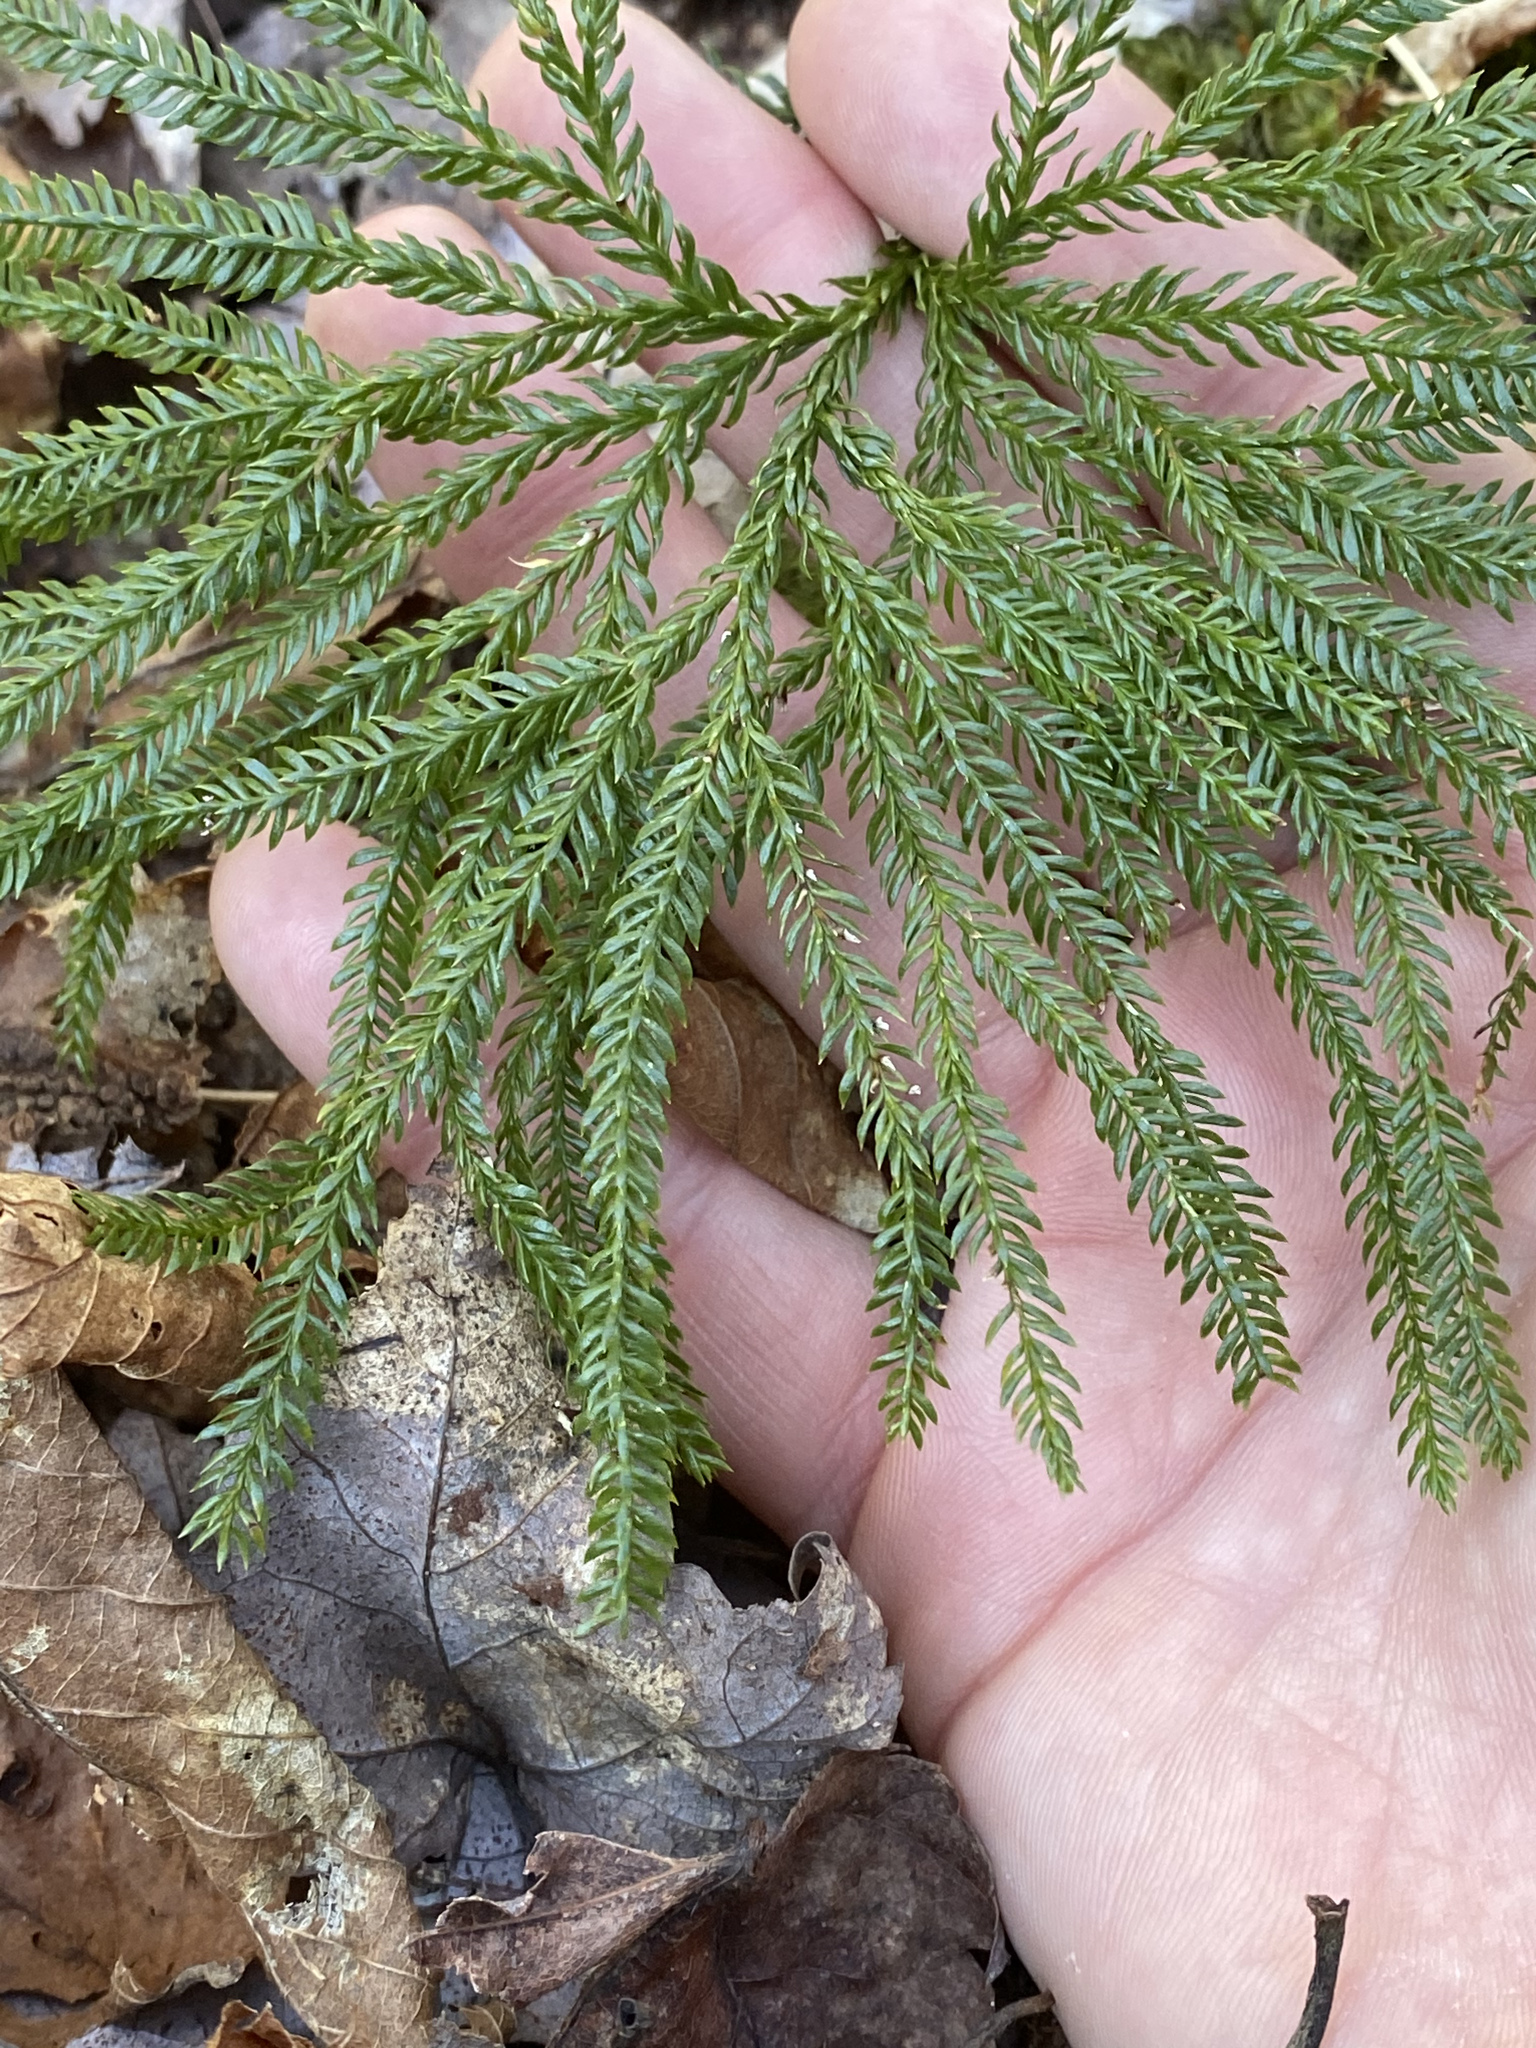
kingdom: Plantae
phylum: Tracheophyta
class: Lycopodiopsida
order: Lycopodiales
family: Lycopodiaceae
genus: Dendrolycopodium
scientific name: Dendrolycopodium obscurum
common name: Common ground-pine
